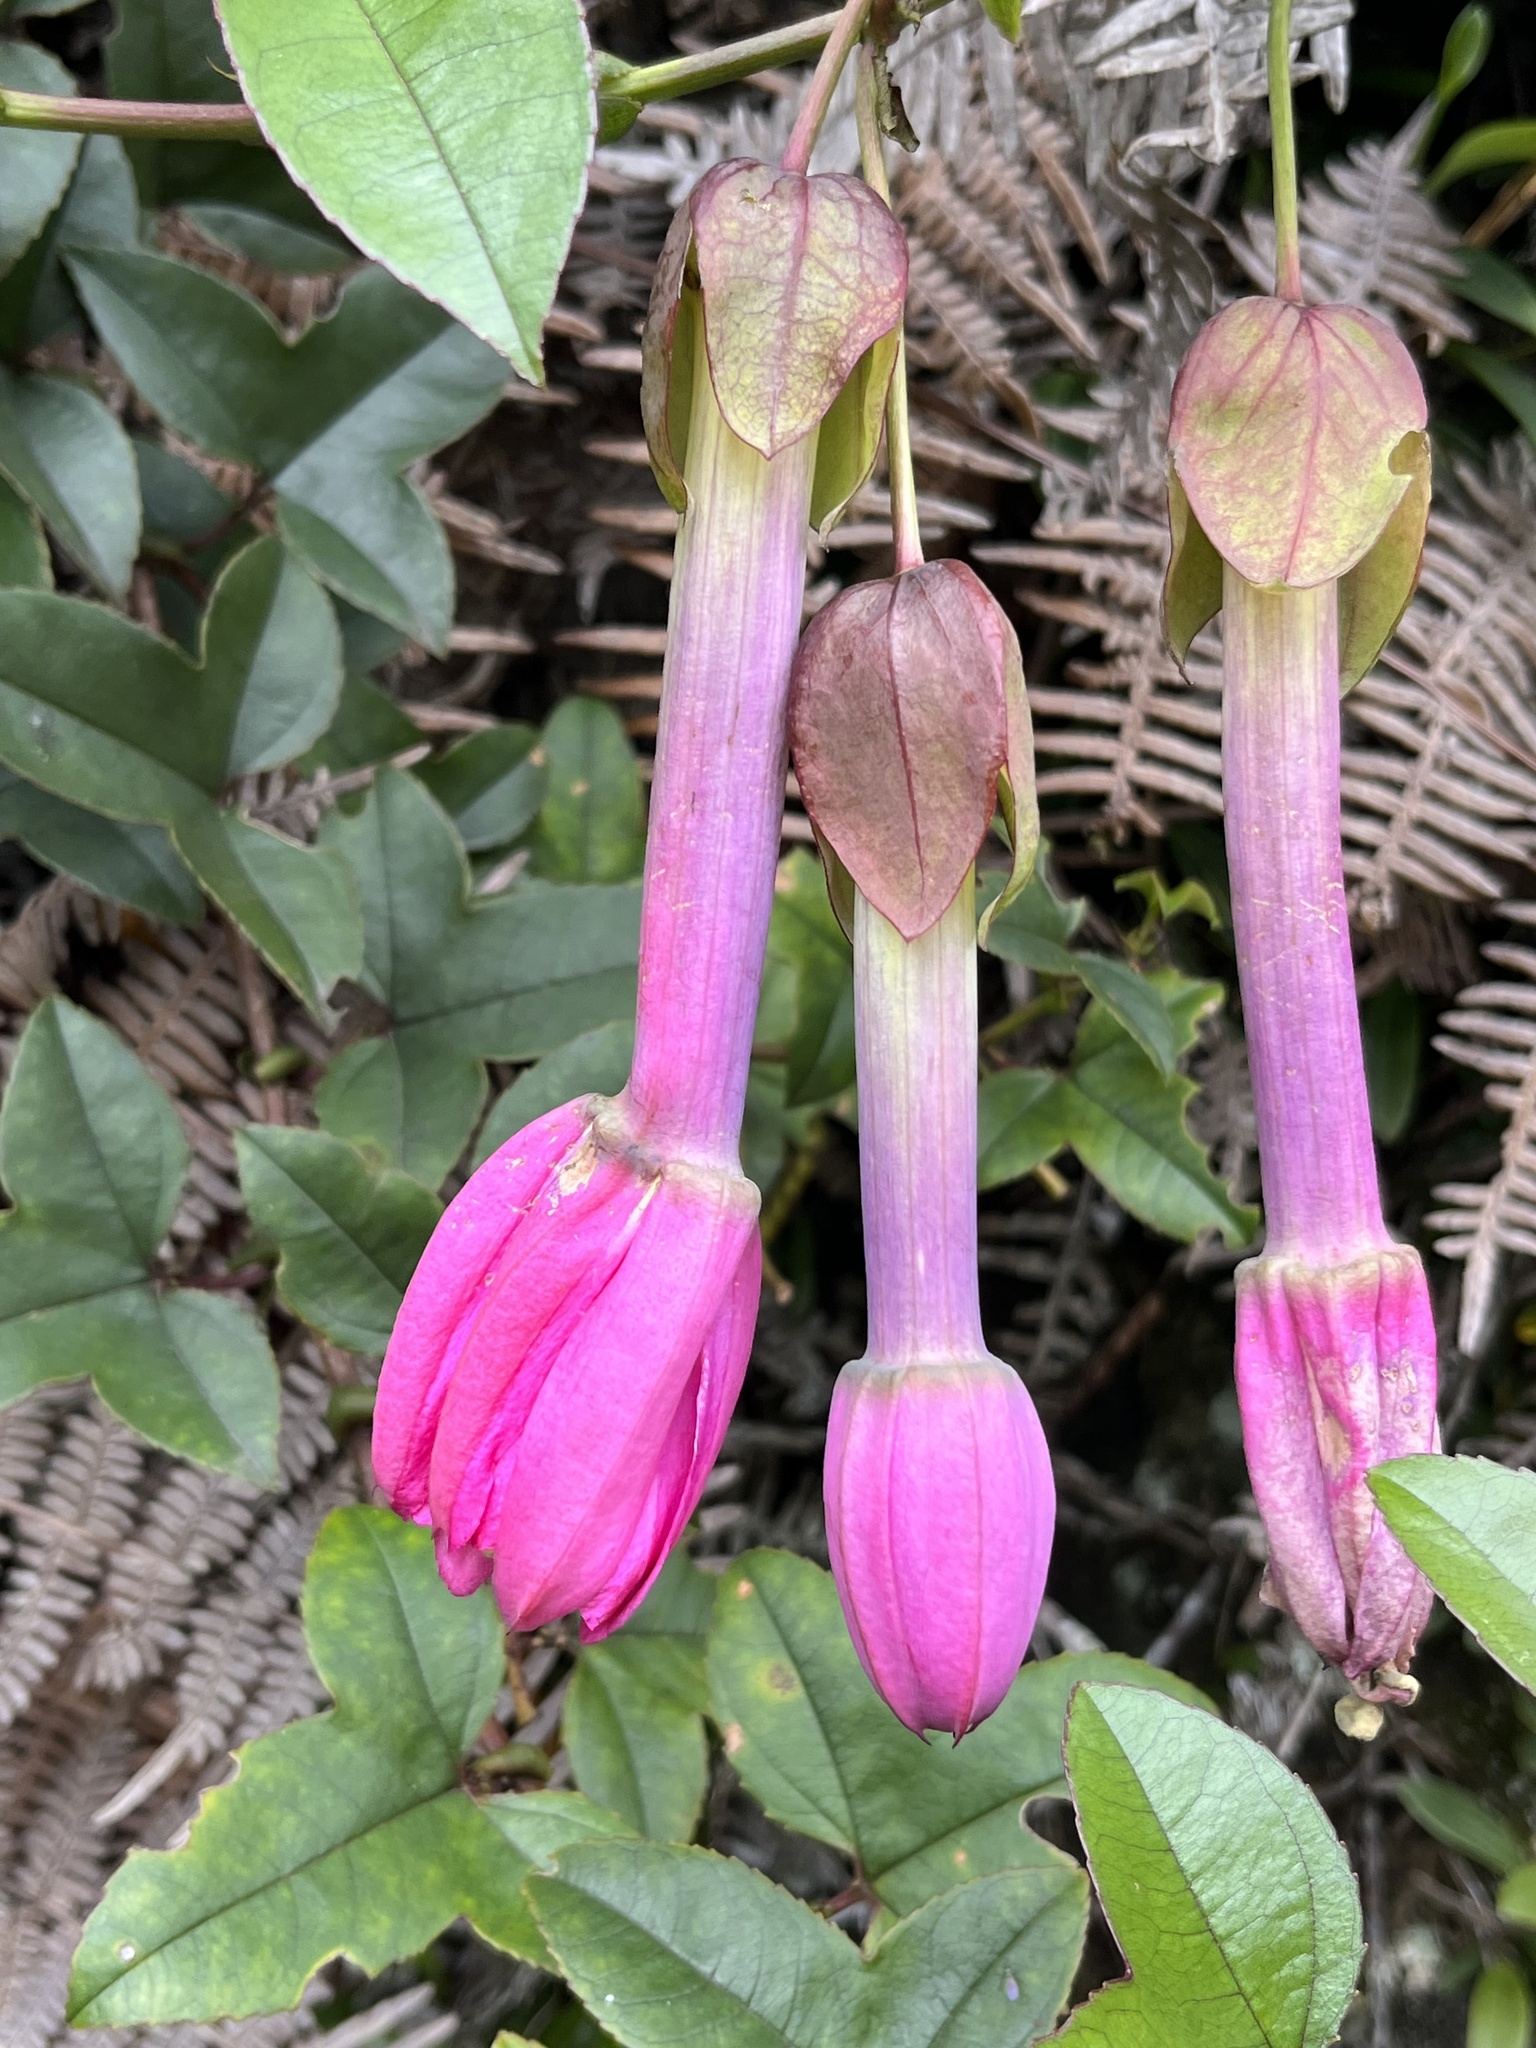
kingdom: Plantae
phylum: Tracheophyta
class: Magnoliopsida
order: Malpighiales
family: Passifloraceae
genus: Passiflora
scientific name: Passiflora cumbalensis
